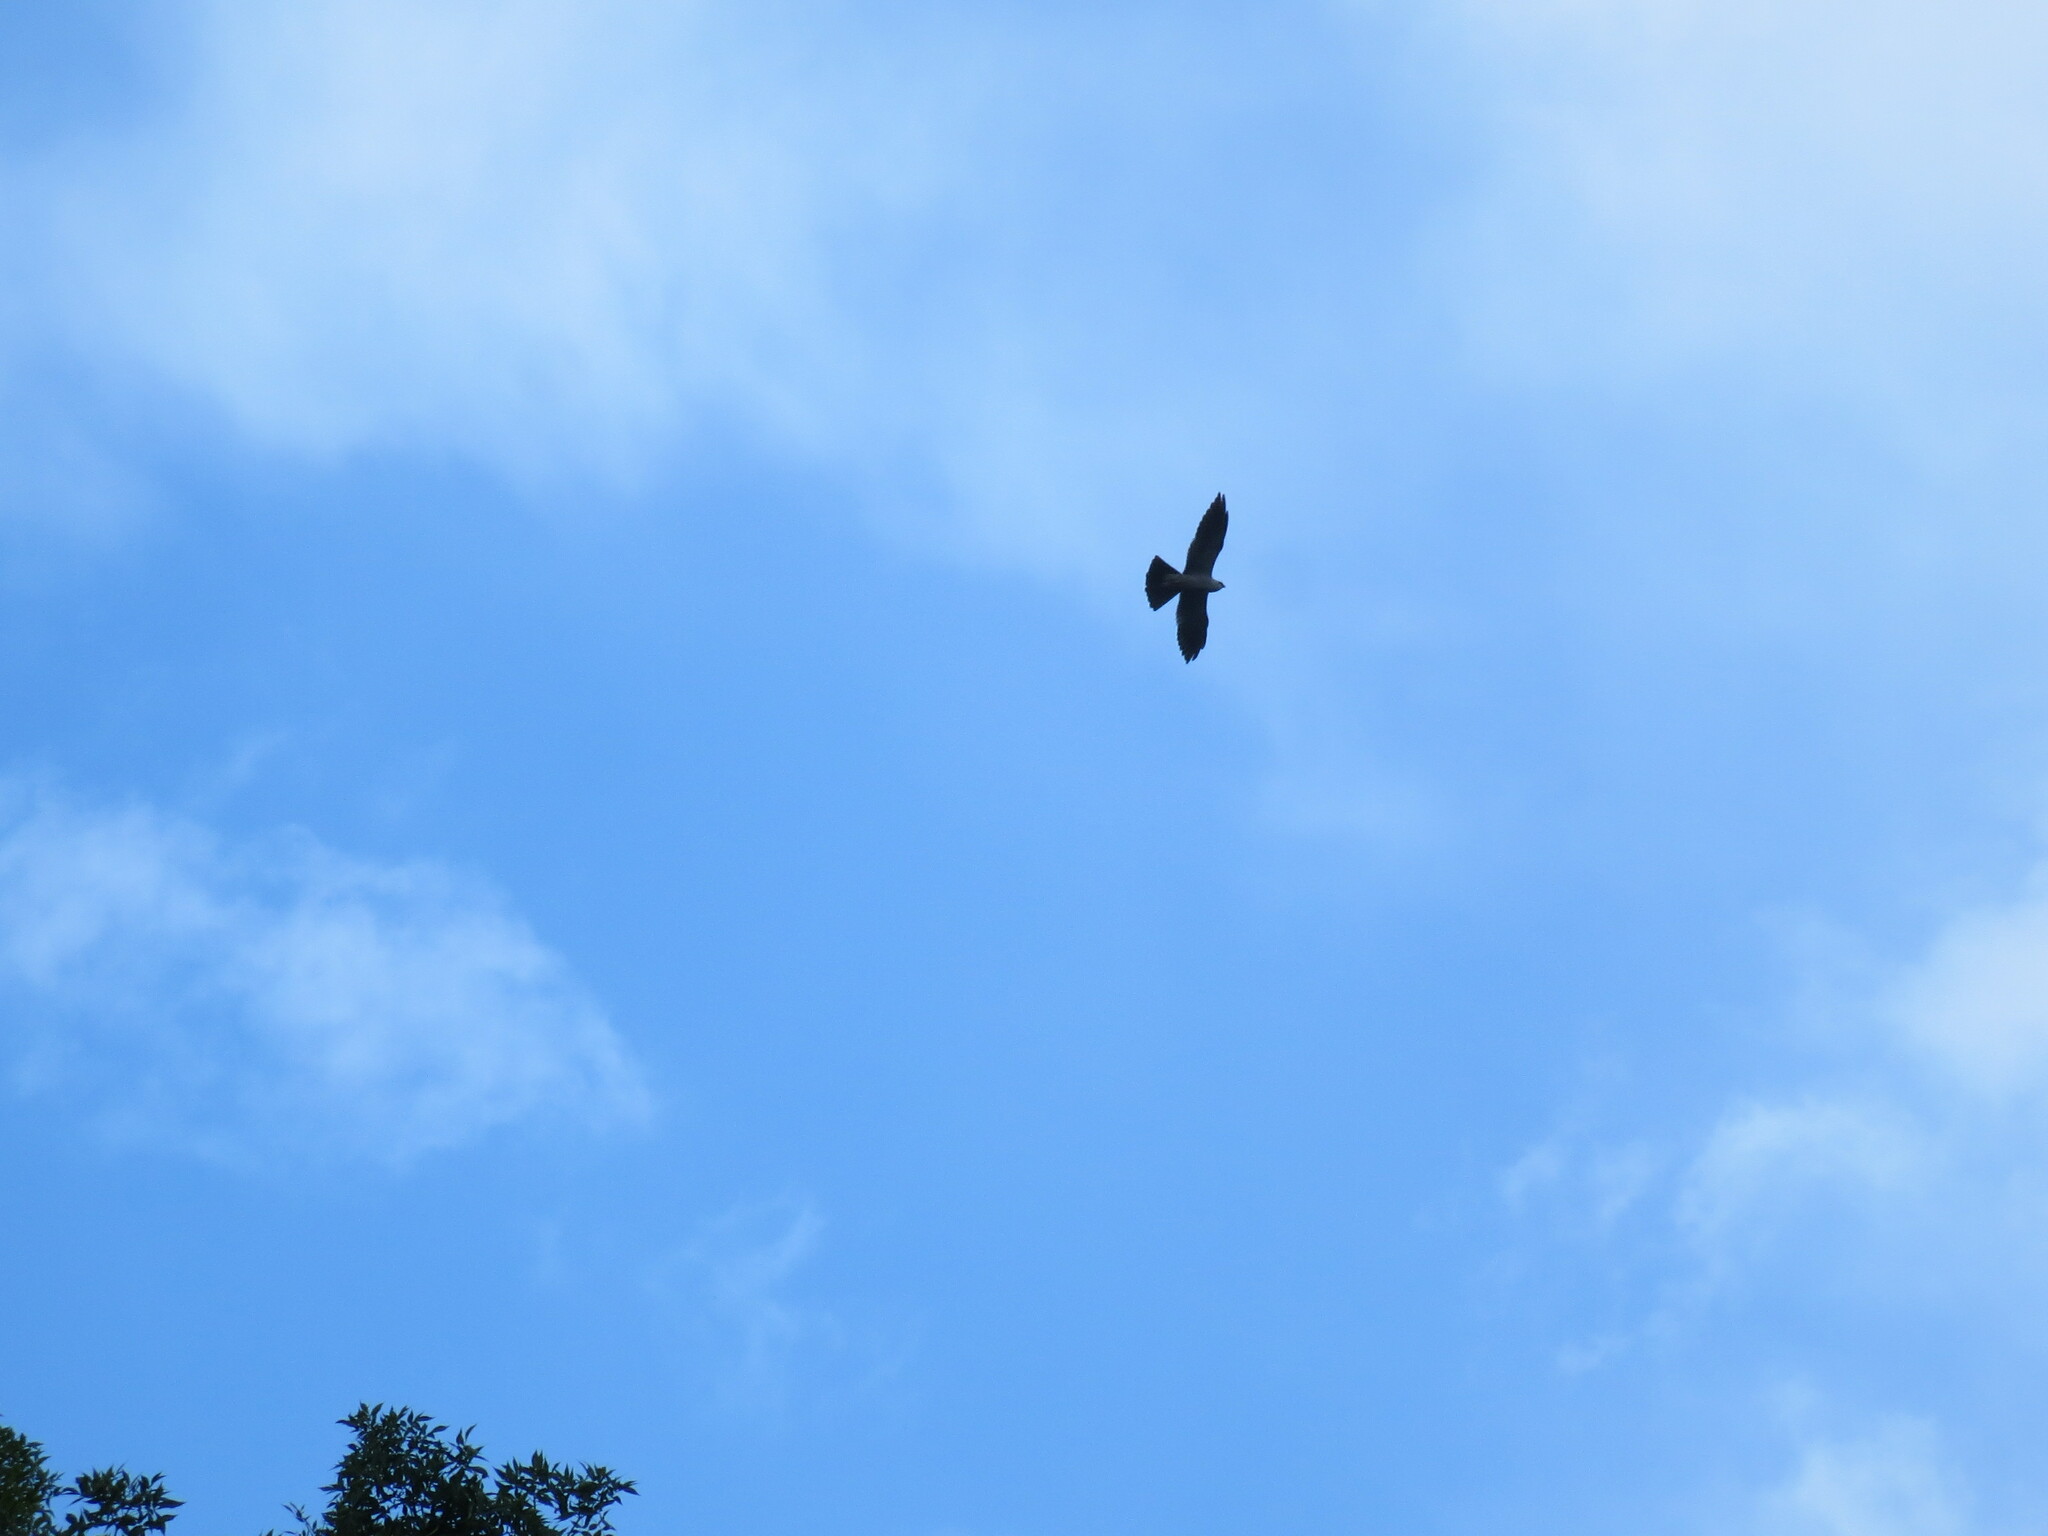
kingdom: Animalia
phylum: Chordata
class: Aves
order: Accipitriformes
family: Accipitridae
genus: Ictinia
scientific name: Ictinia mississippiensis
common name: Mississippi kite
